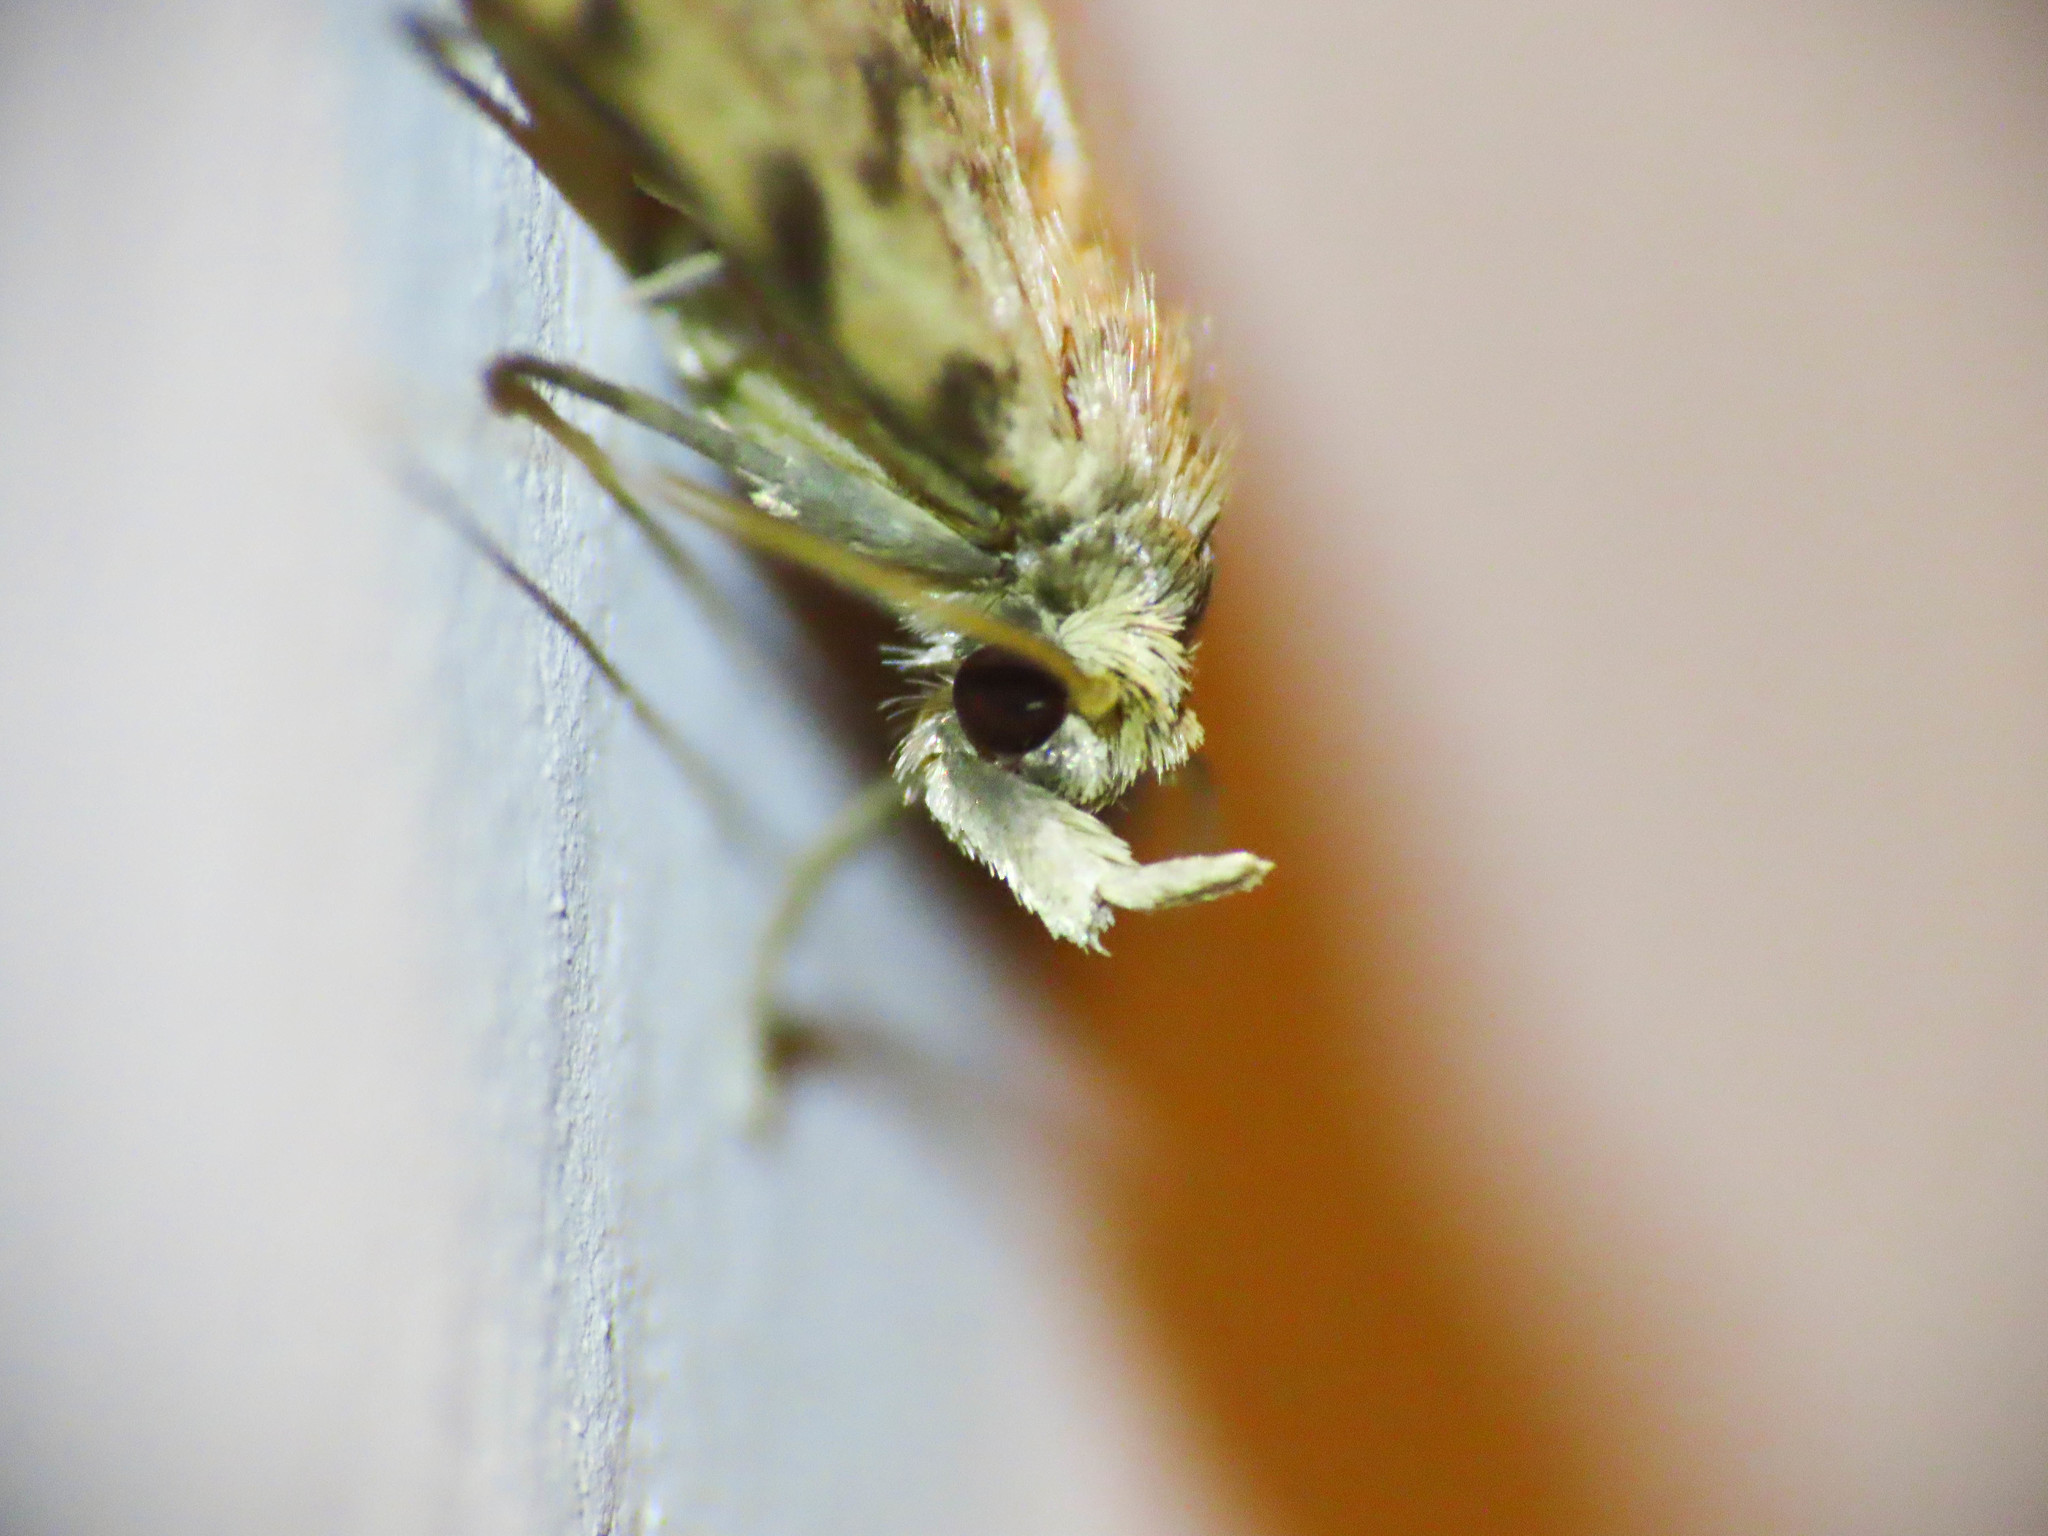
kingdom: Animalia
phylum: Arthropoda
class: Insecta
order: Lepidoptera
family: Erebidae
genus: Orectis
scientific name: Orectis proboscidata
